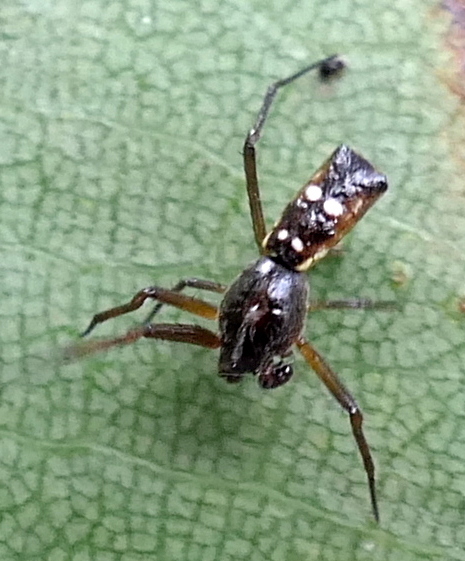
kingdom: Animalia
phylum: Arthropoda
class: Arachnida
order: Araneae
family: Araneidae
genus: Micrathena
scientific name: Micrathena fissispina
